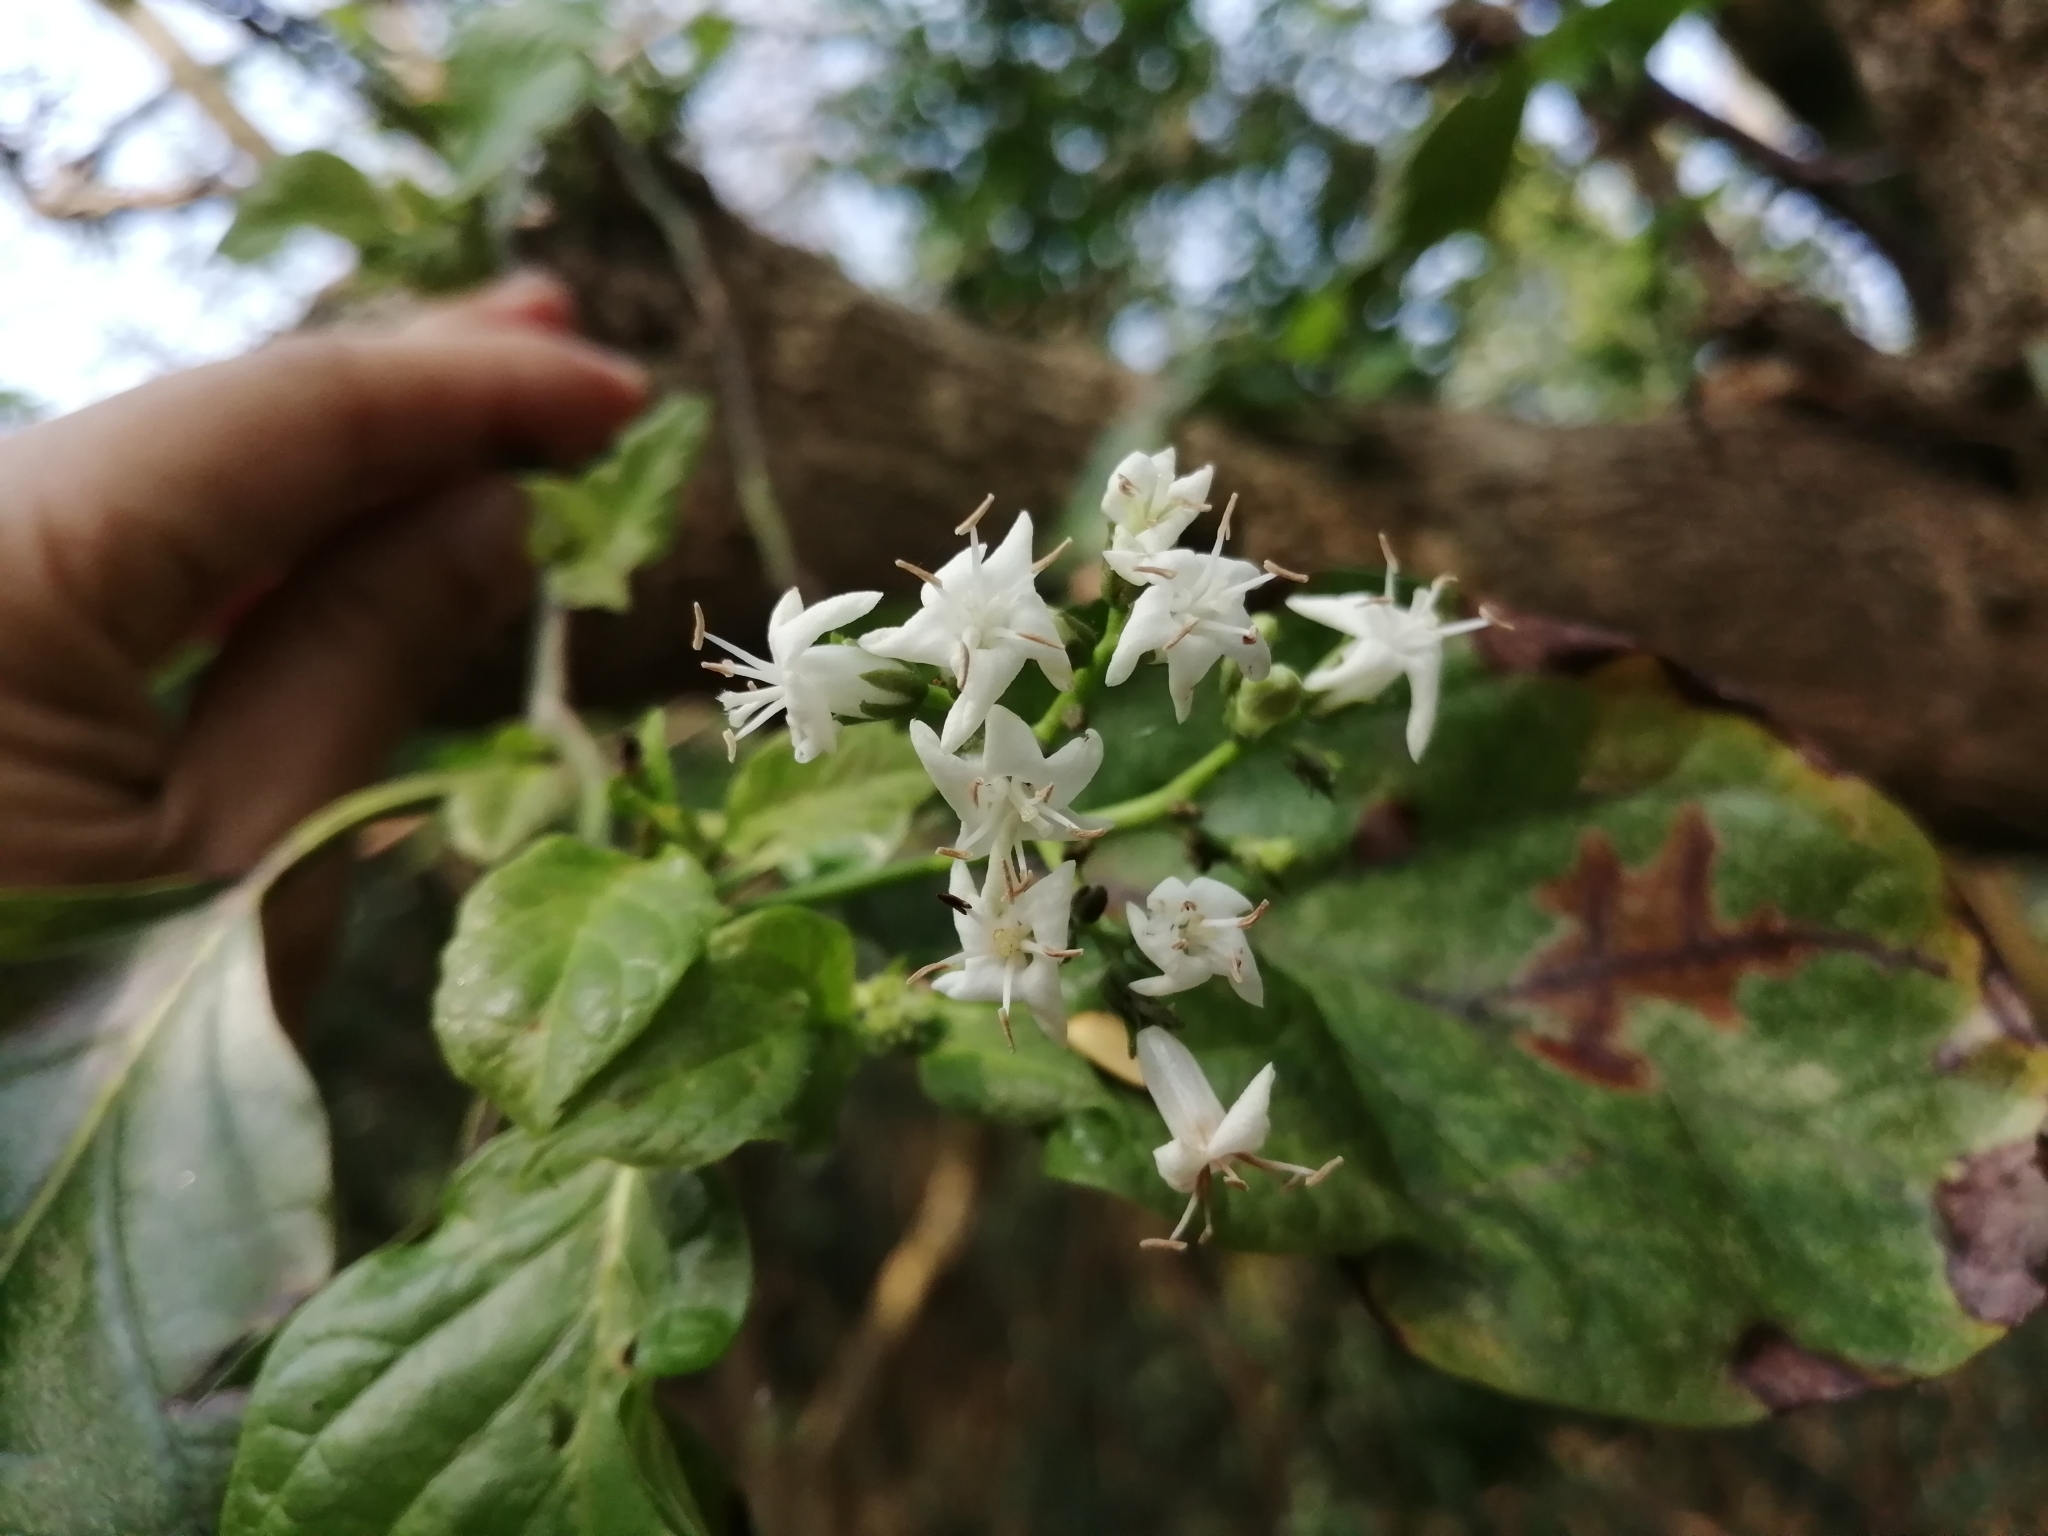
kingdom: Plantae
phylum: Tracheophyta
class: Magnoliopsida
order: Boraginales
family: Ehretiaceae
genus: Ehretia
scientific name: Ehretia resinosa
